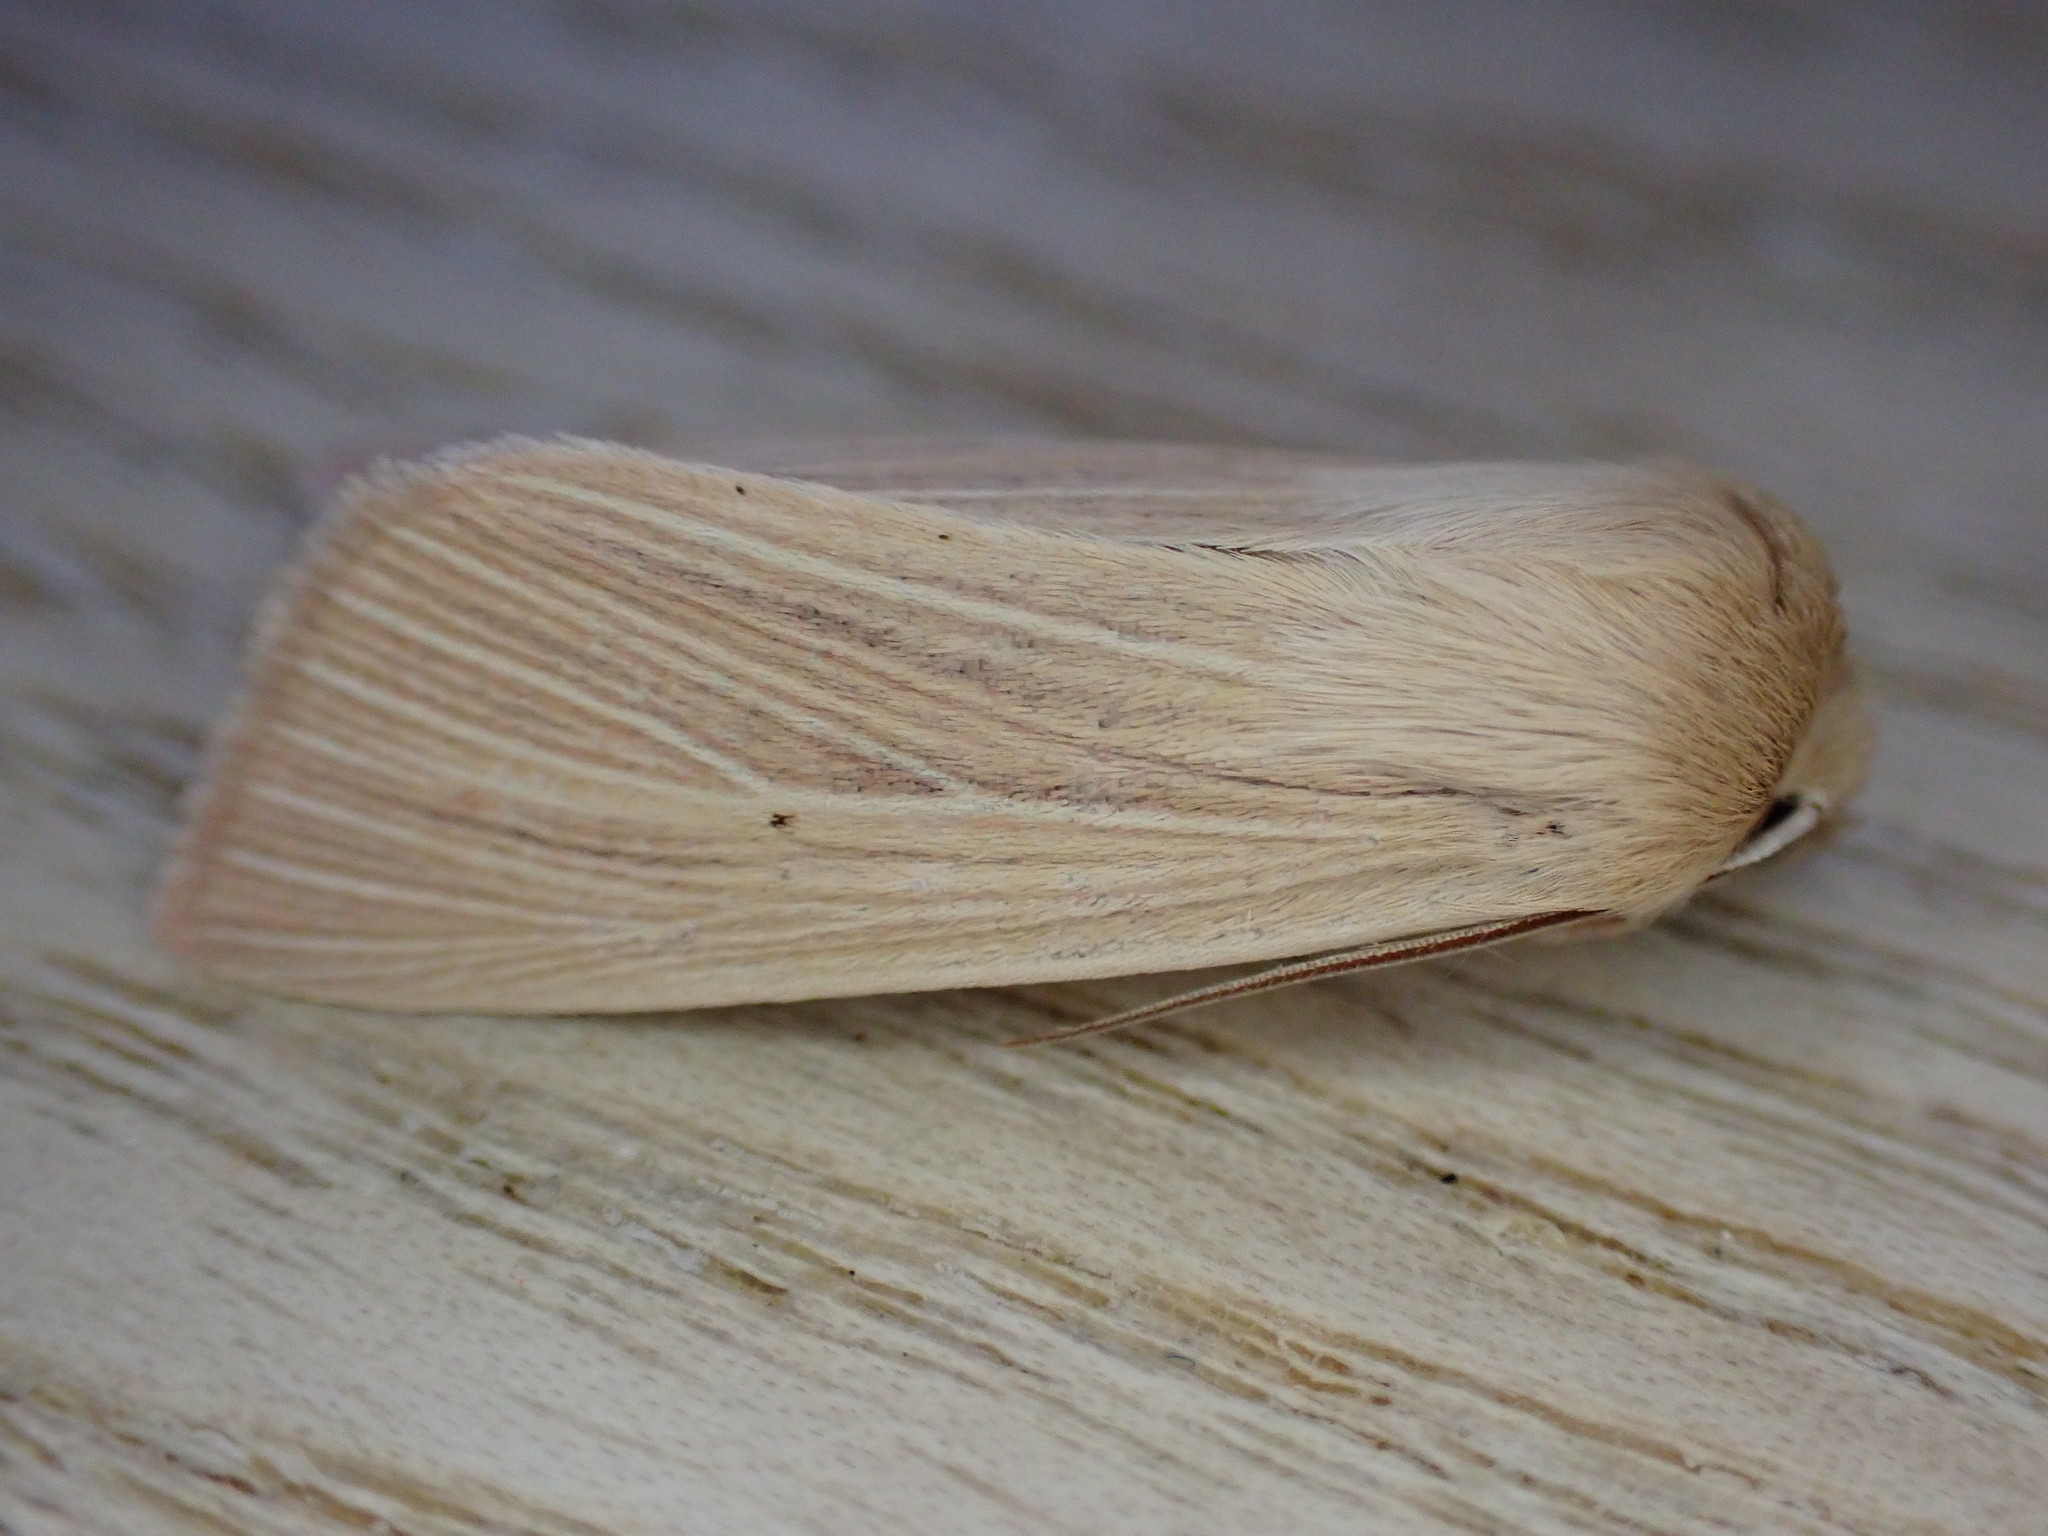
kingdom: Animalia
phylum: Arthropoda
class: Insecta
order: Lepidoptera
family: Noctuidae
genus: Mythimna
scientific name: Mythimna pallens
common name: Common wainscot
